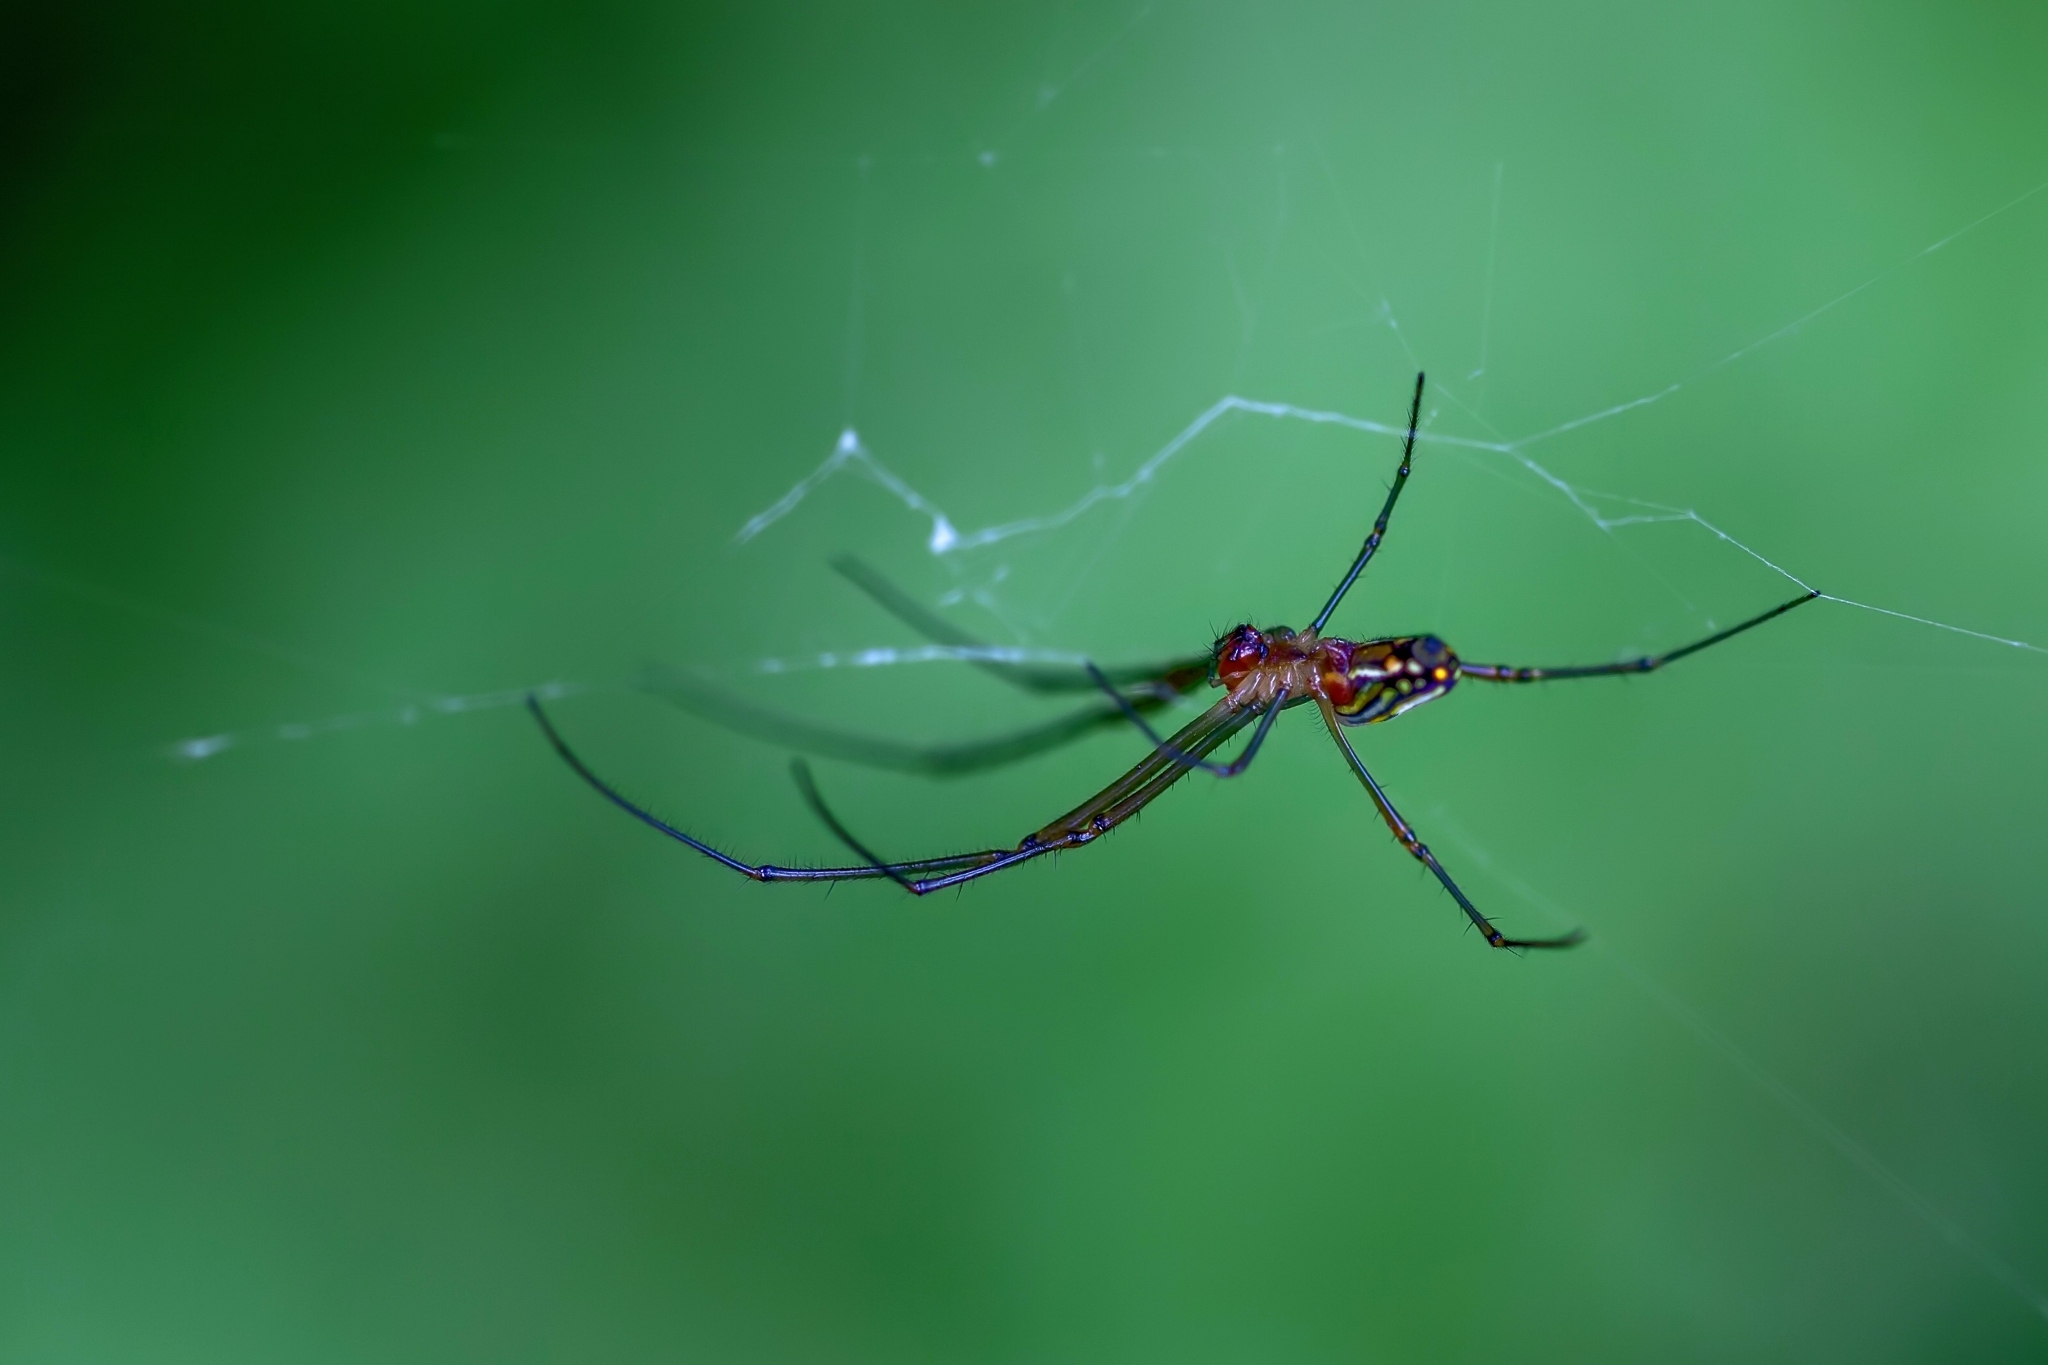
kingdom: Animalia
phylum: Arthropoda
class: Arachnida
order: Araneae
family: Tetragnathidae
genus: Leucauge
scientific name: Leucauge argyra
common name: Longjawed orb weavers
